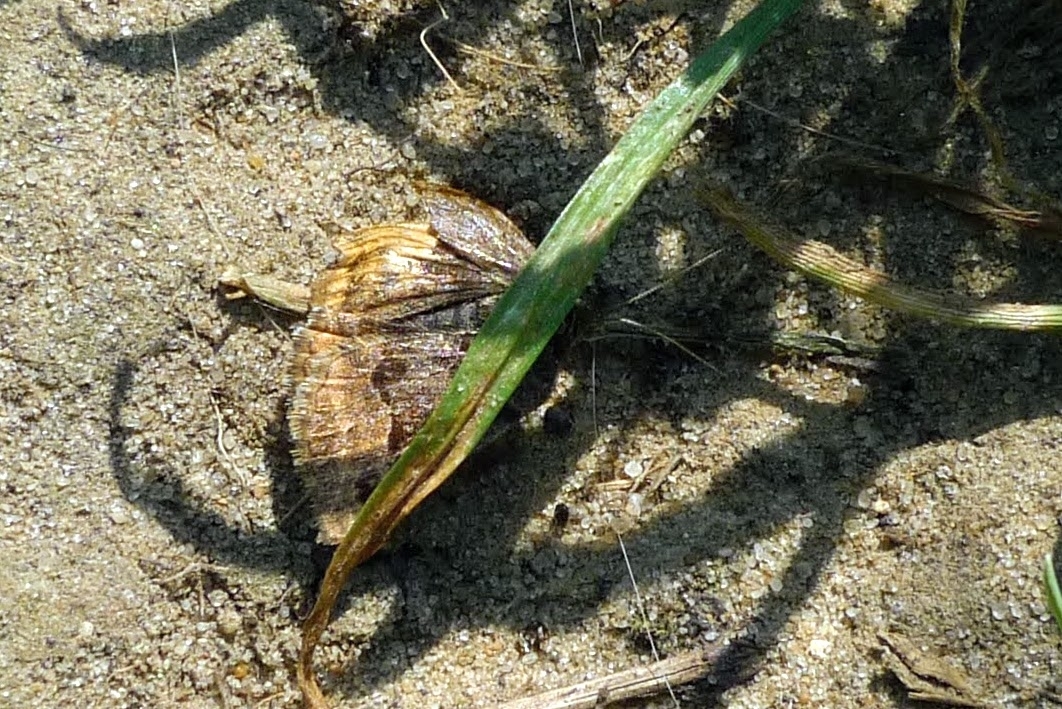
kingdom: Animalia
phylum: Arthropoda
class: Insecta
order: Lepidoptera
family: Erebidae
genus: Euclidia
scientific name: Euclidia glyphica
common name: Burnet companion
